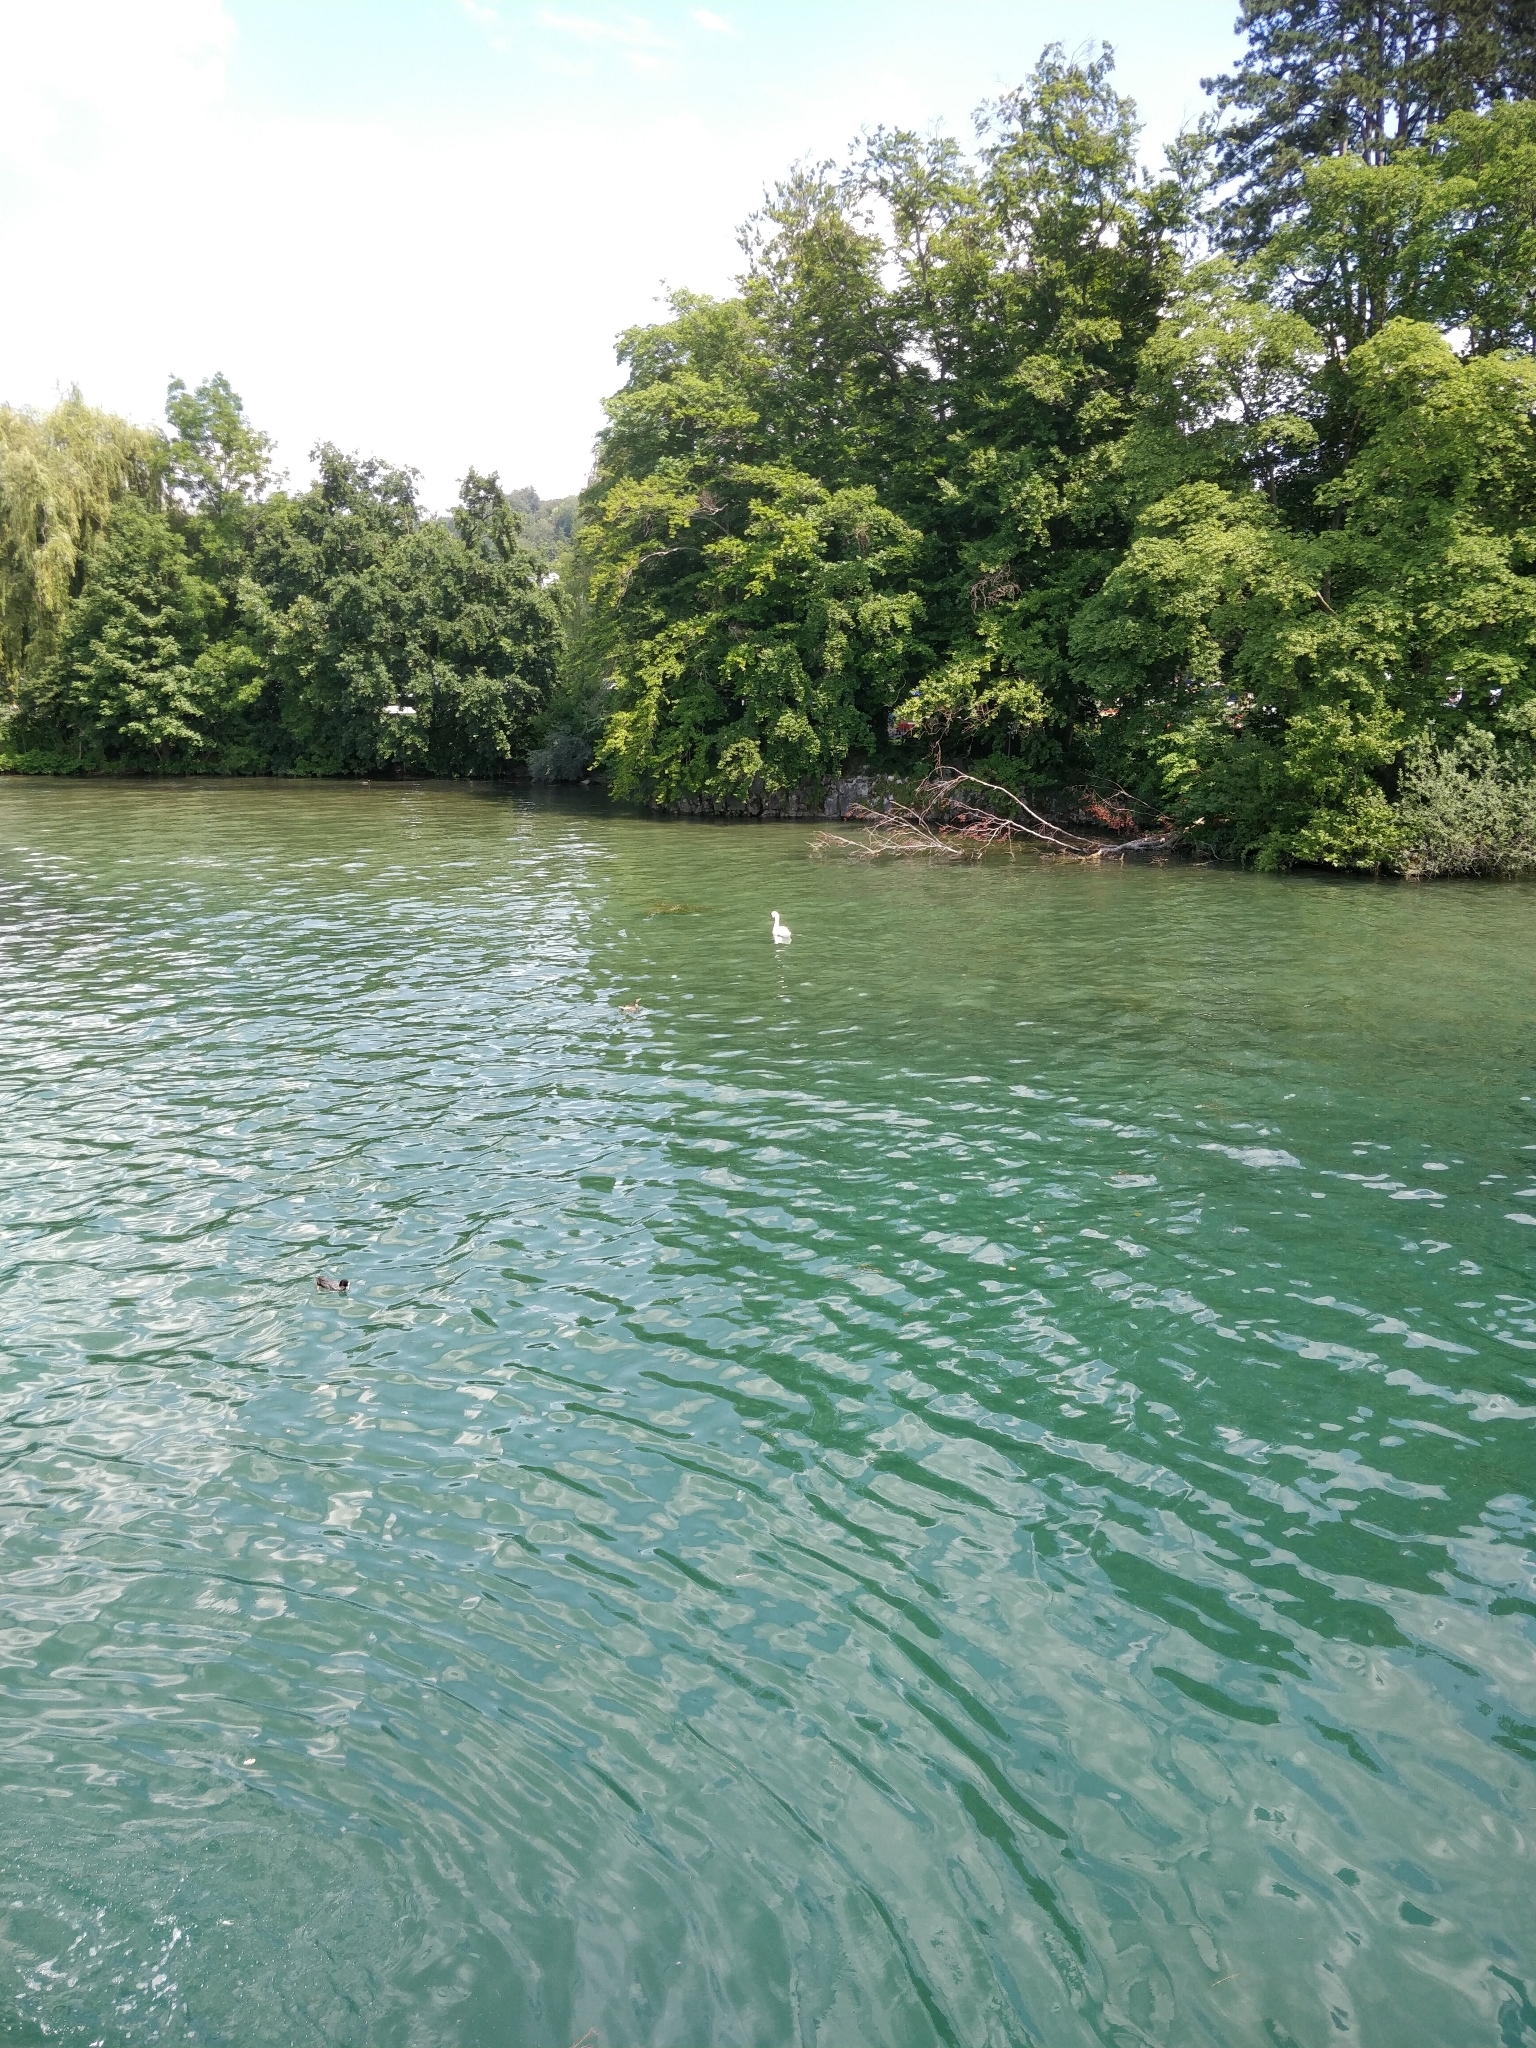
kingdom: Animalia
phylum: Chordata
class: Aves
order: Anseriformes
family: Anatidae
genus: Cygnus
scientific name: Cygnus olor
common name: Mute swan
